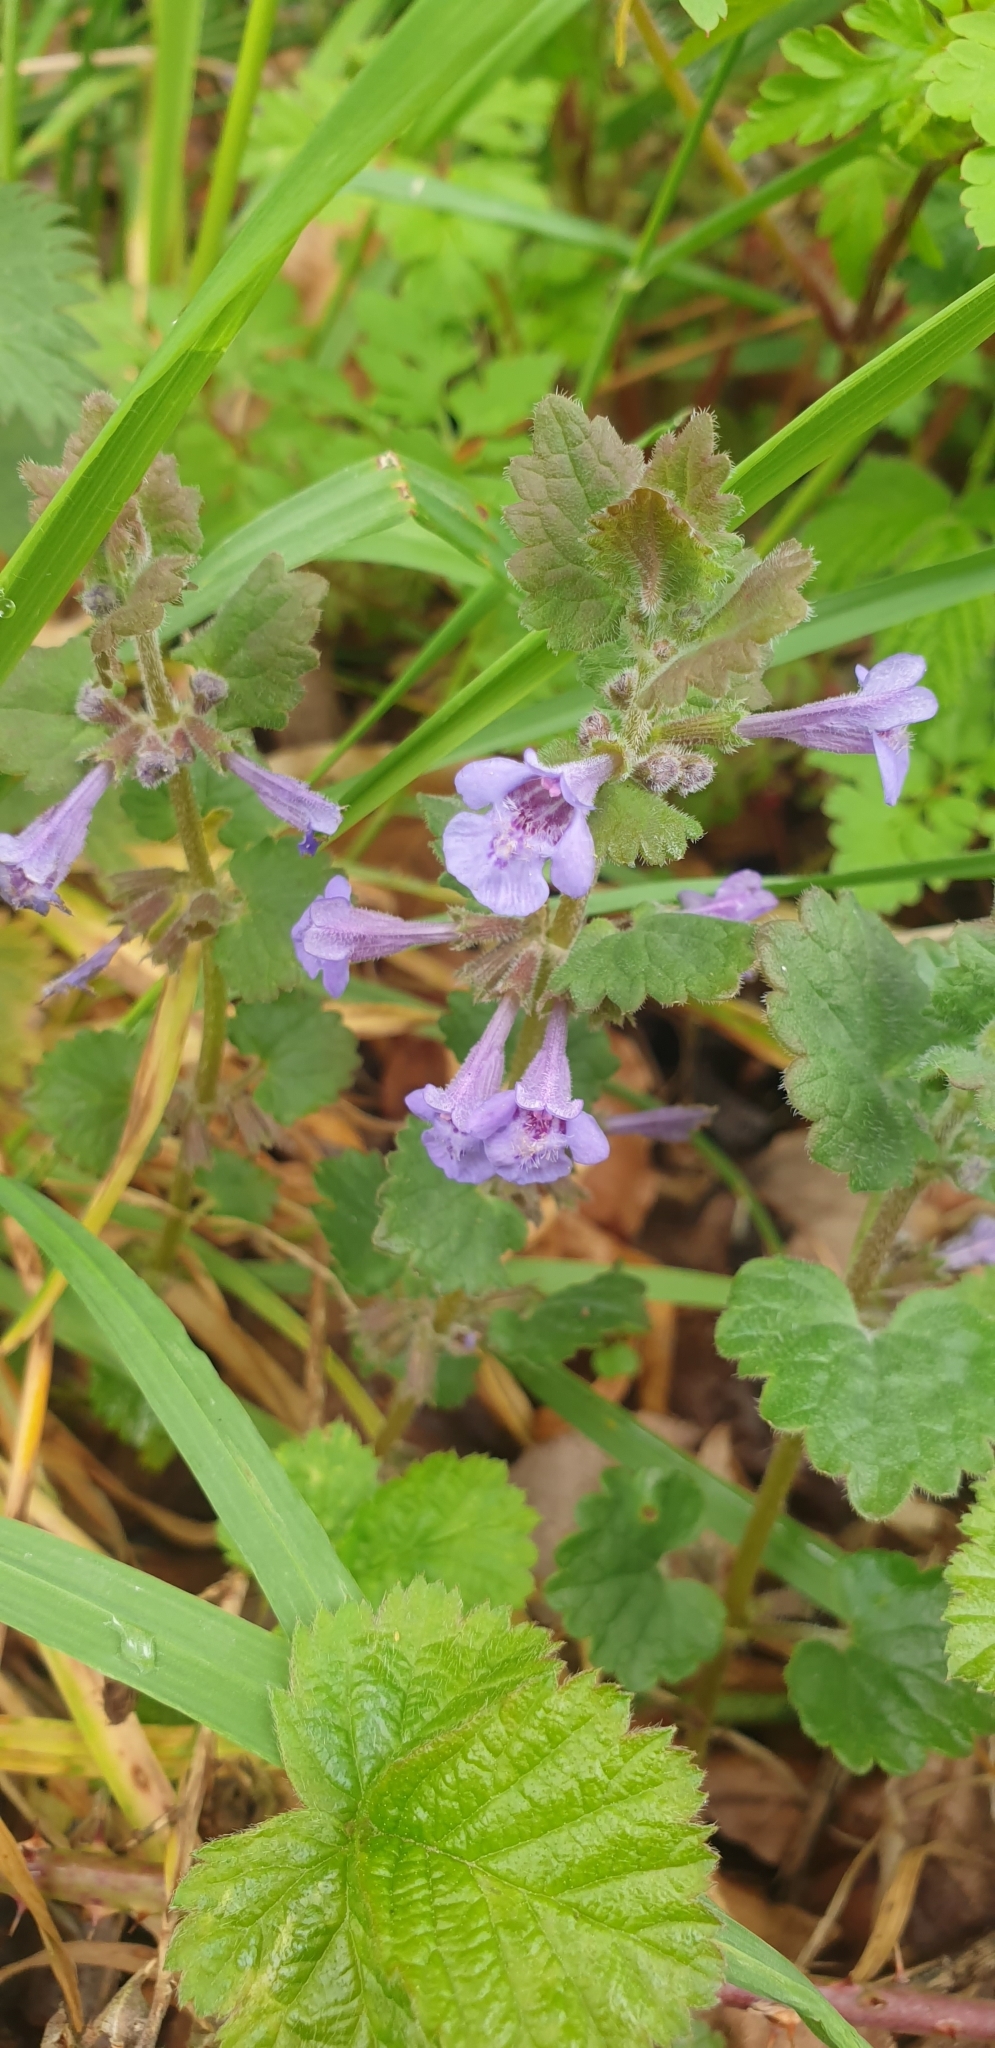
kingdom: Plantae
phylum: Tracheophyta
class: Magnoliopsida
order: Lamiales
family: Lamiaceae
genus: Glechoma
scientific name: Glechoma hederacea
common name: Ground ivy
